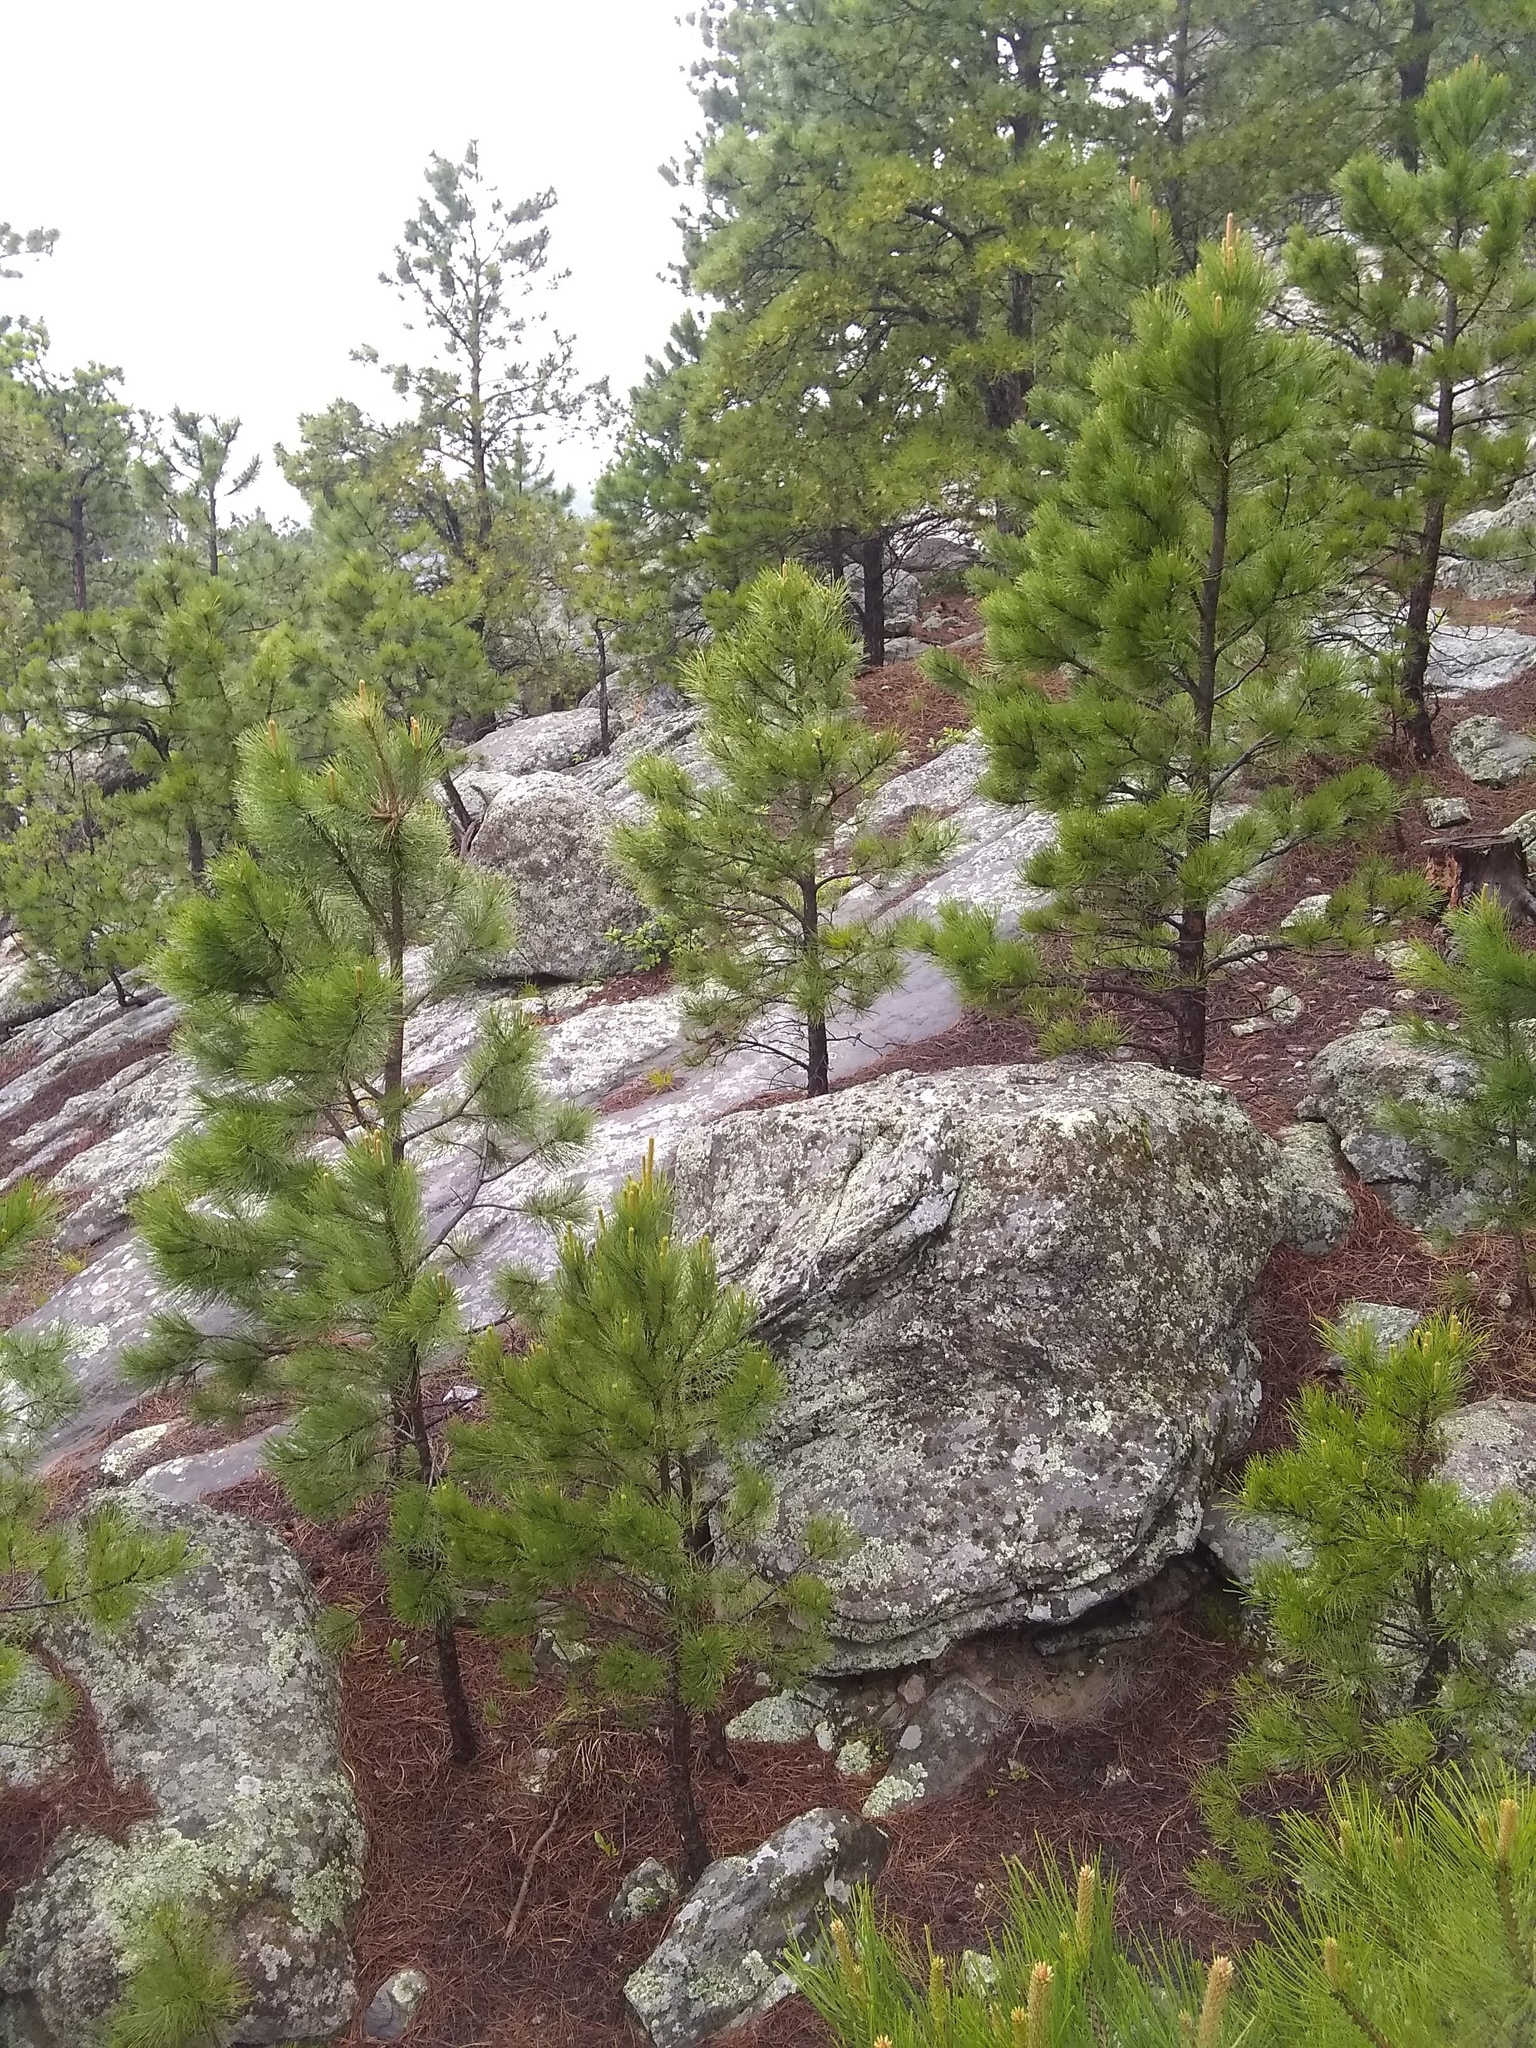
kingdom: Plantae
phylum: Tracheophyta
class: Pinopsida
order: Pinales
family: Pinaceae
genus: Pinus
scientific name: Pinus ponderosa
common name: Western yellow-pine
